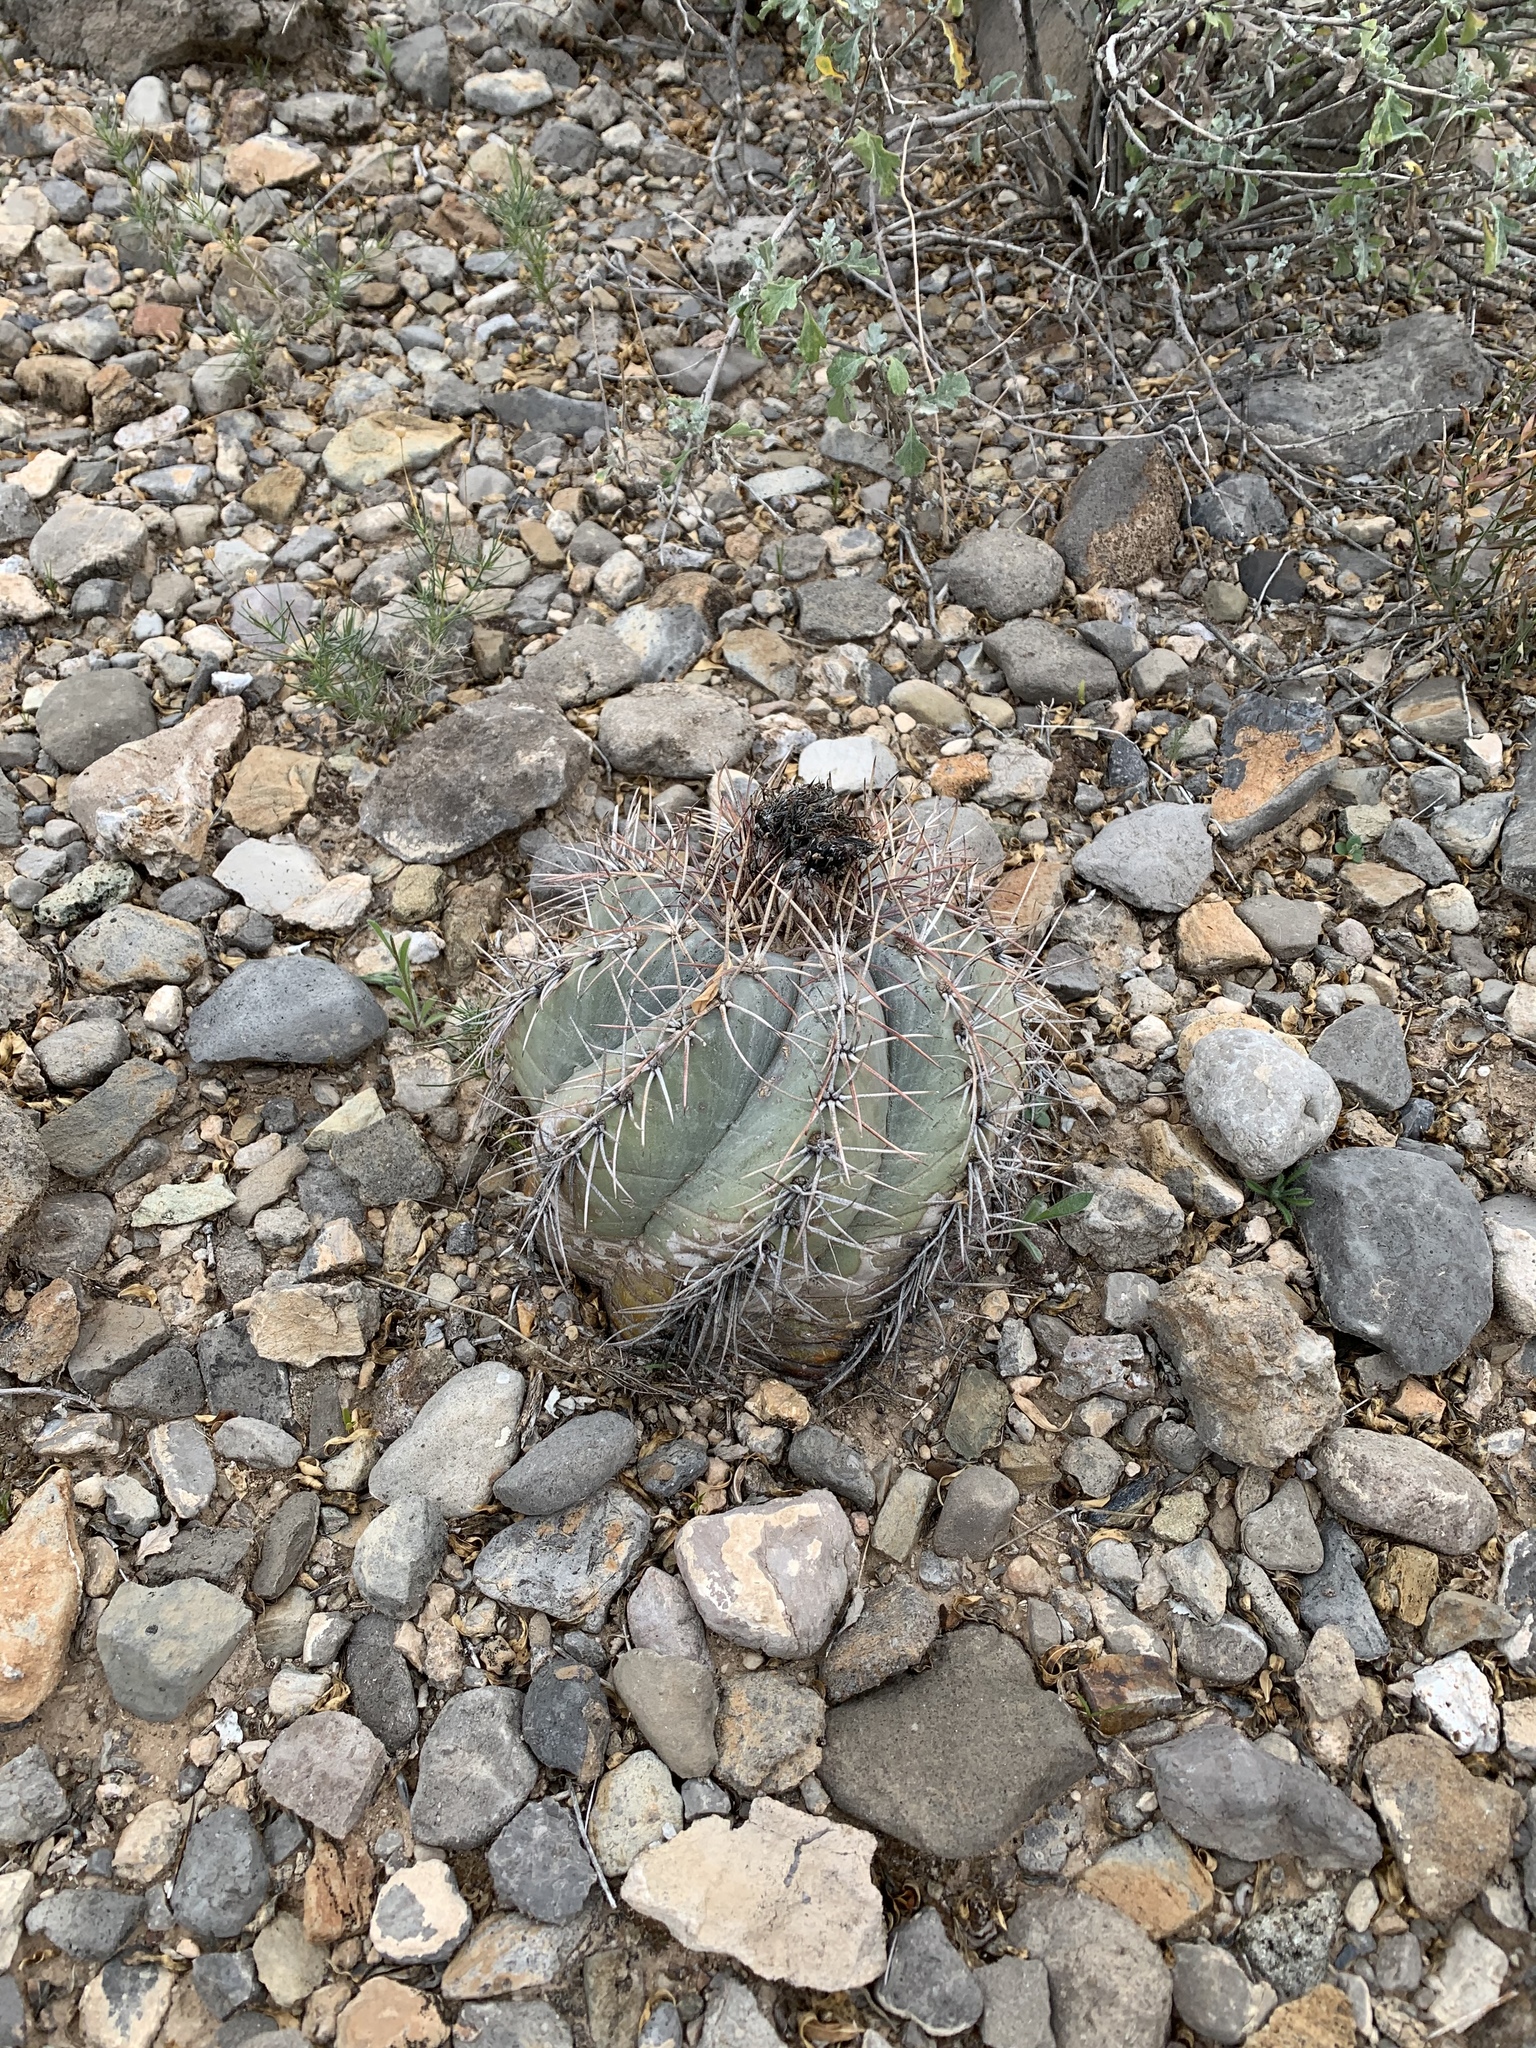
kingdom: Plantae
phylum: Tracheophyta
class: Magnoliopsida
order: Caryophyllales
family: Cactaceae
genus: Echinocactus
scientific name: Echinocactus horizonthalonius
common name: Devilshead
